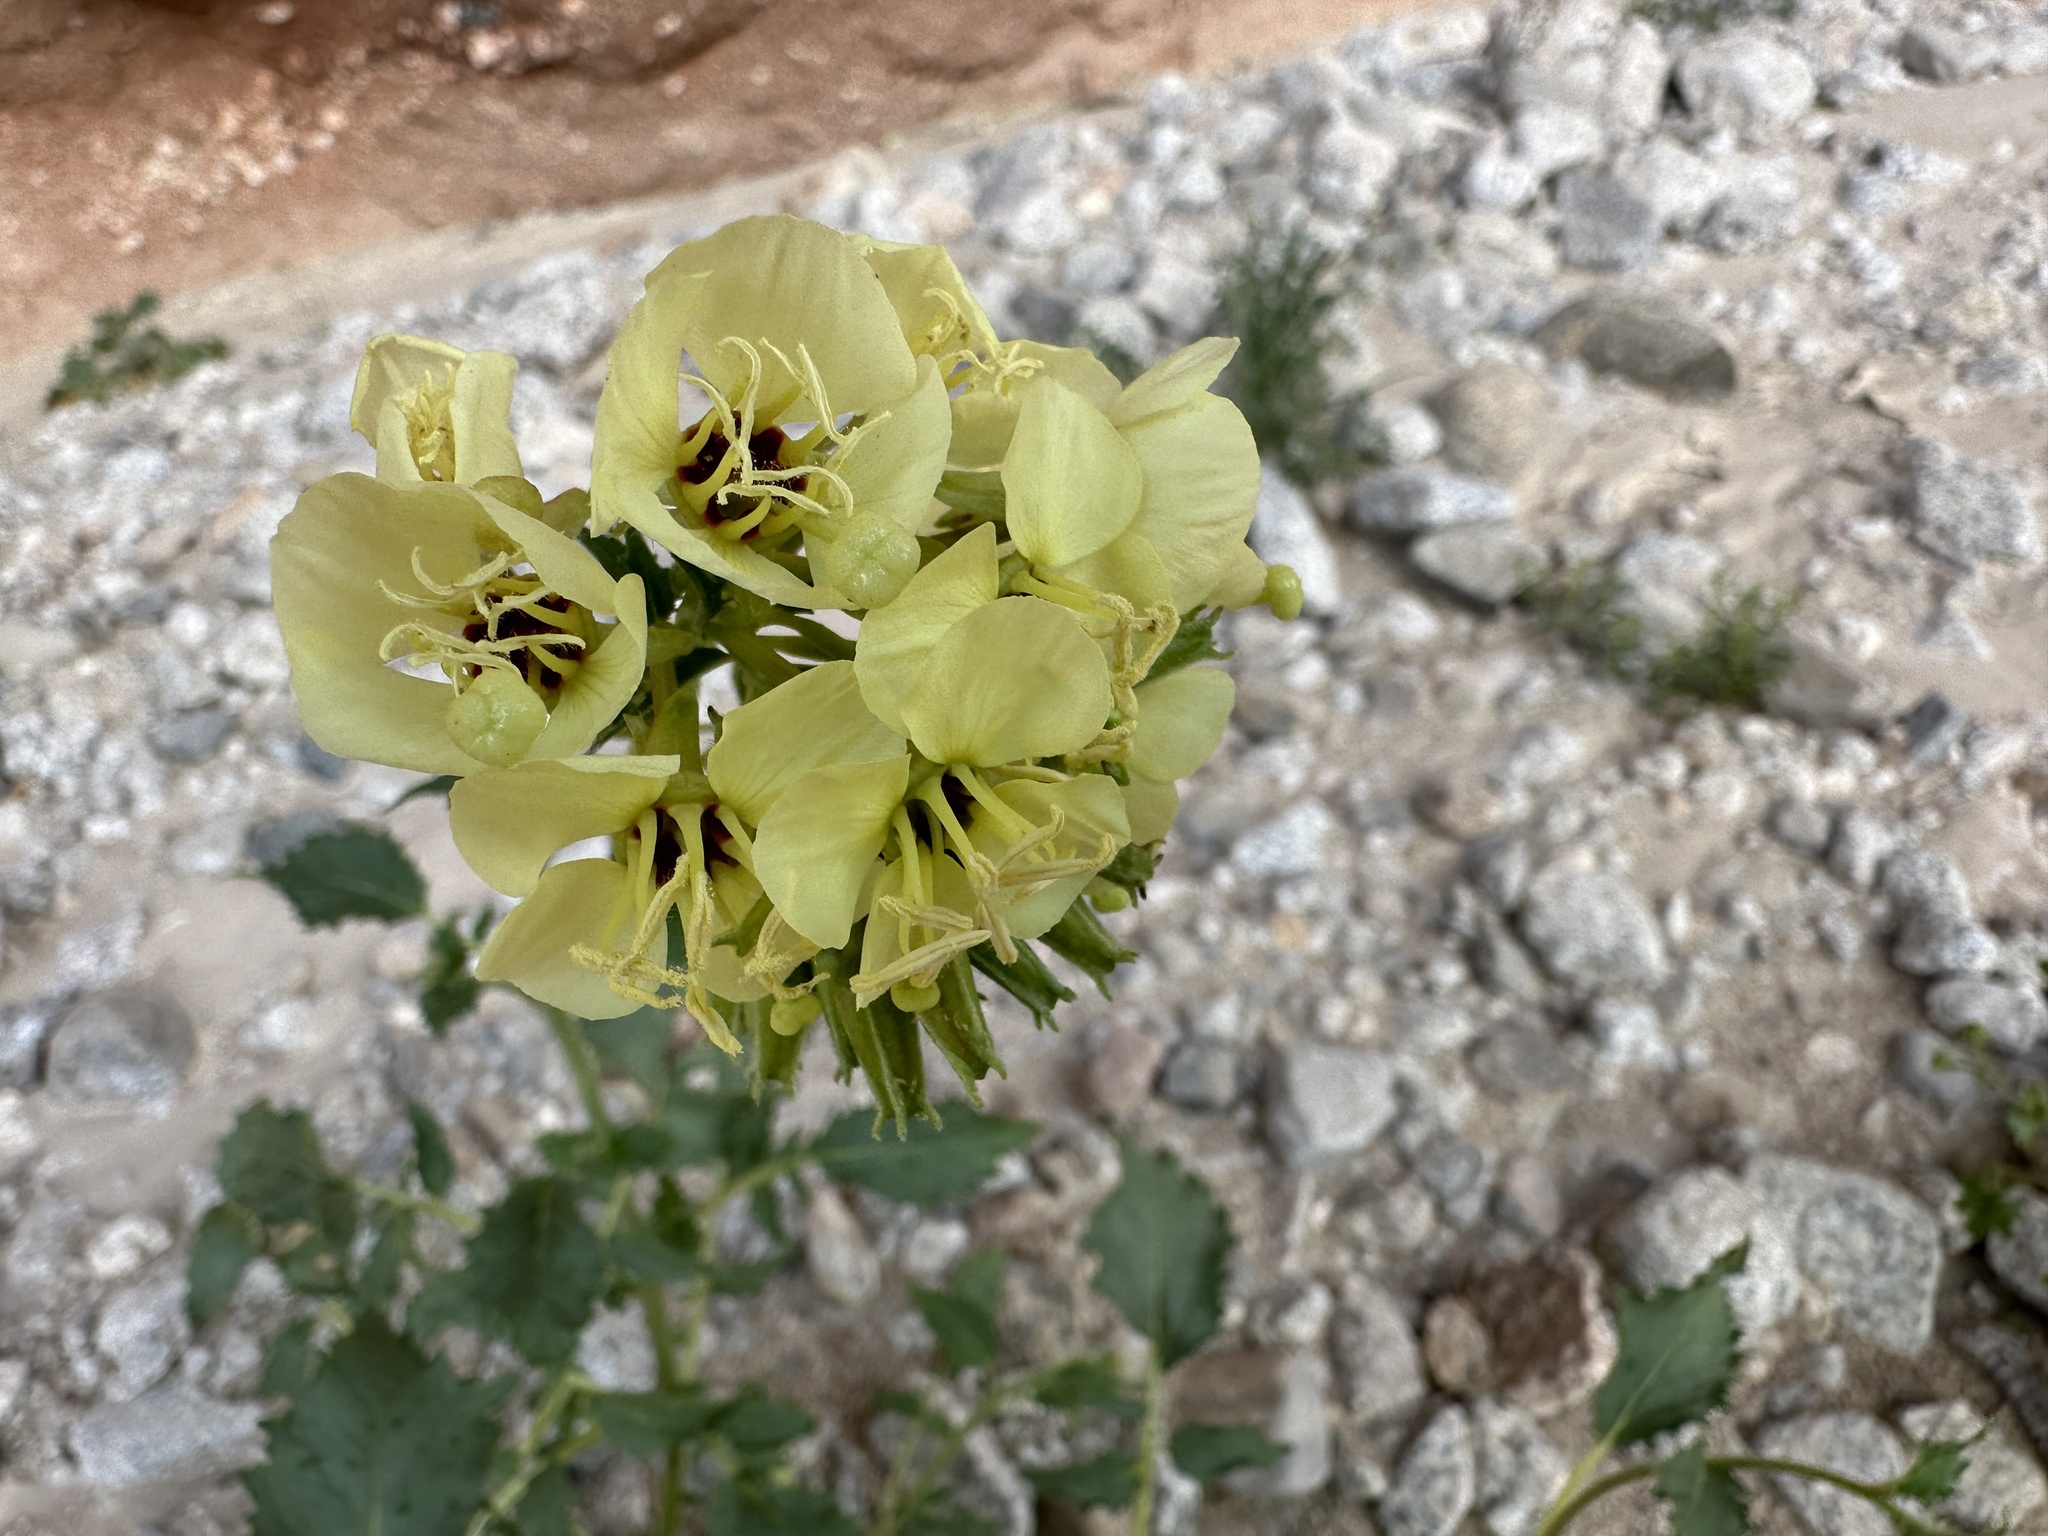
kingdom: Plantae
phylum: Tracheophyta
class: Magnoliopsida
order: Myrtales
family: Onagraceae
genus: Chylismia
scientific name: Chylismia claviformis
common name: Browneyes
